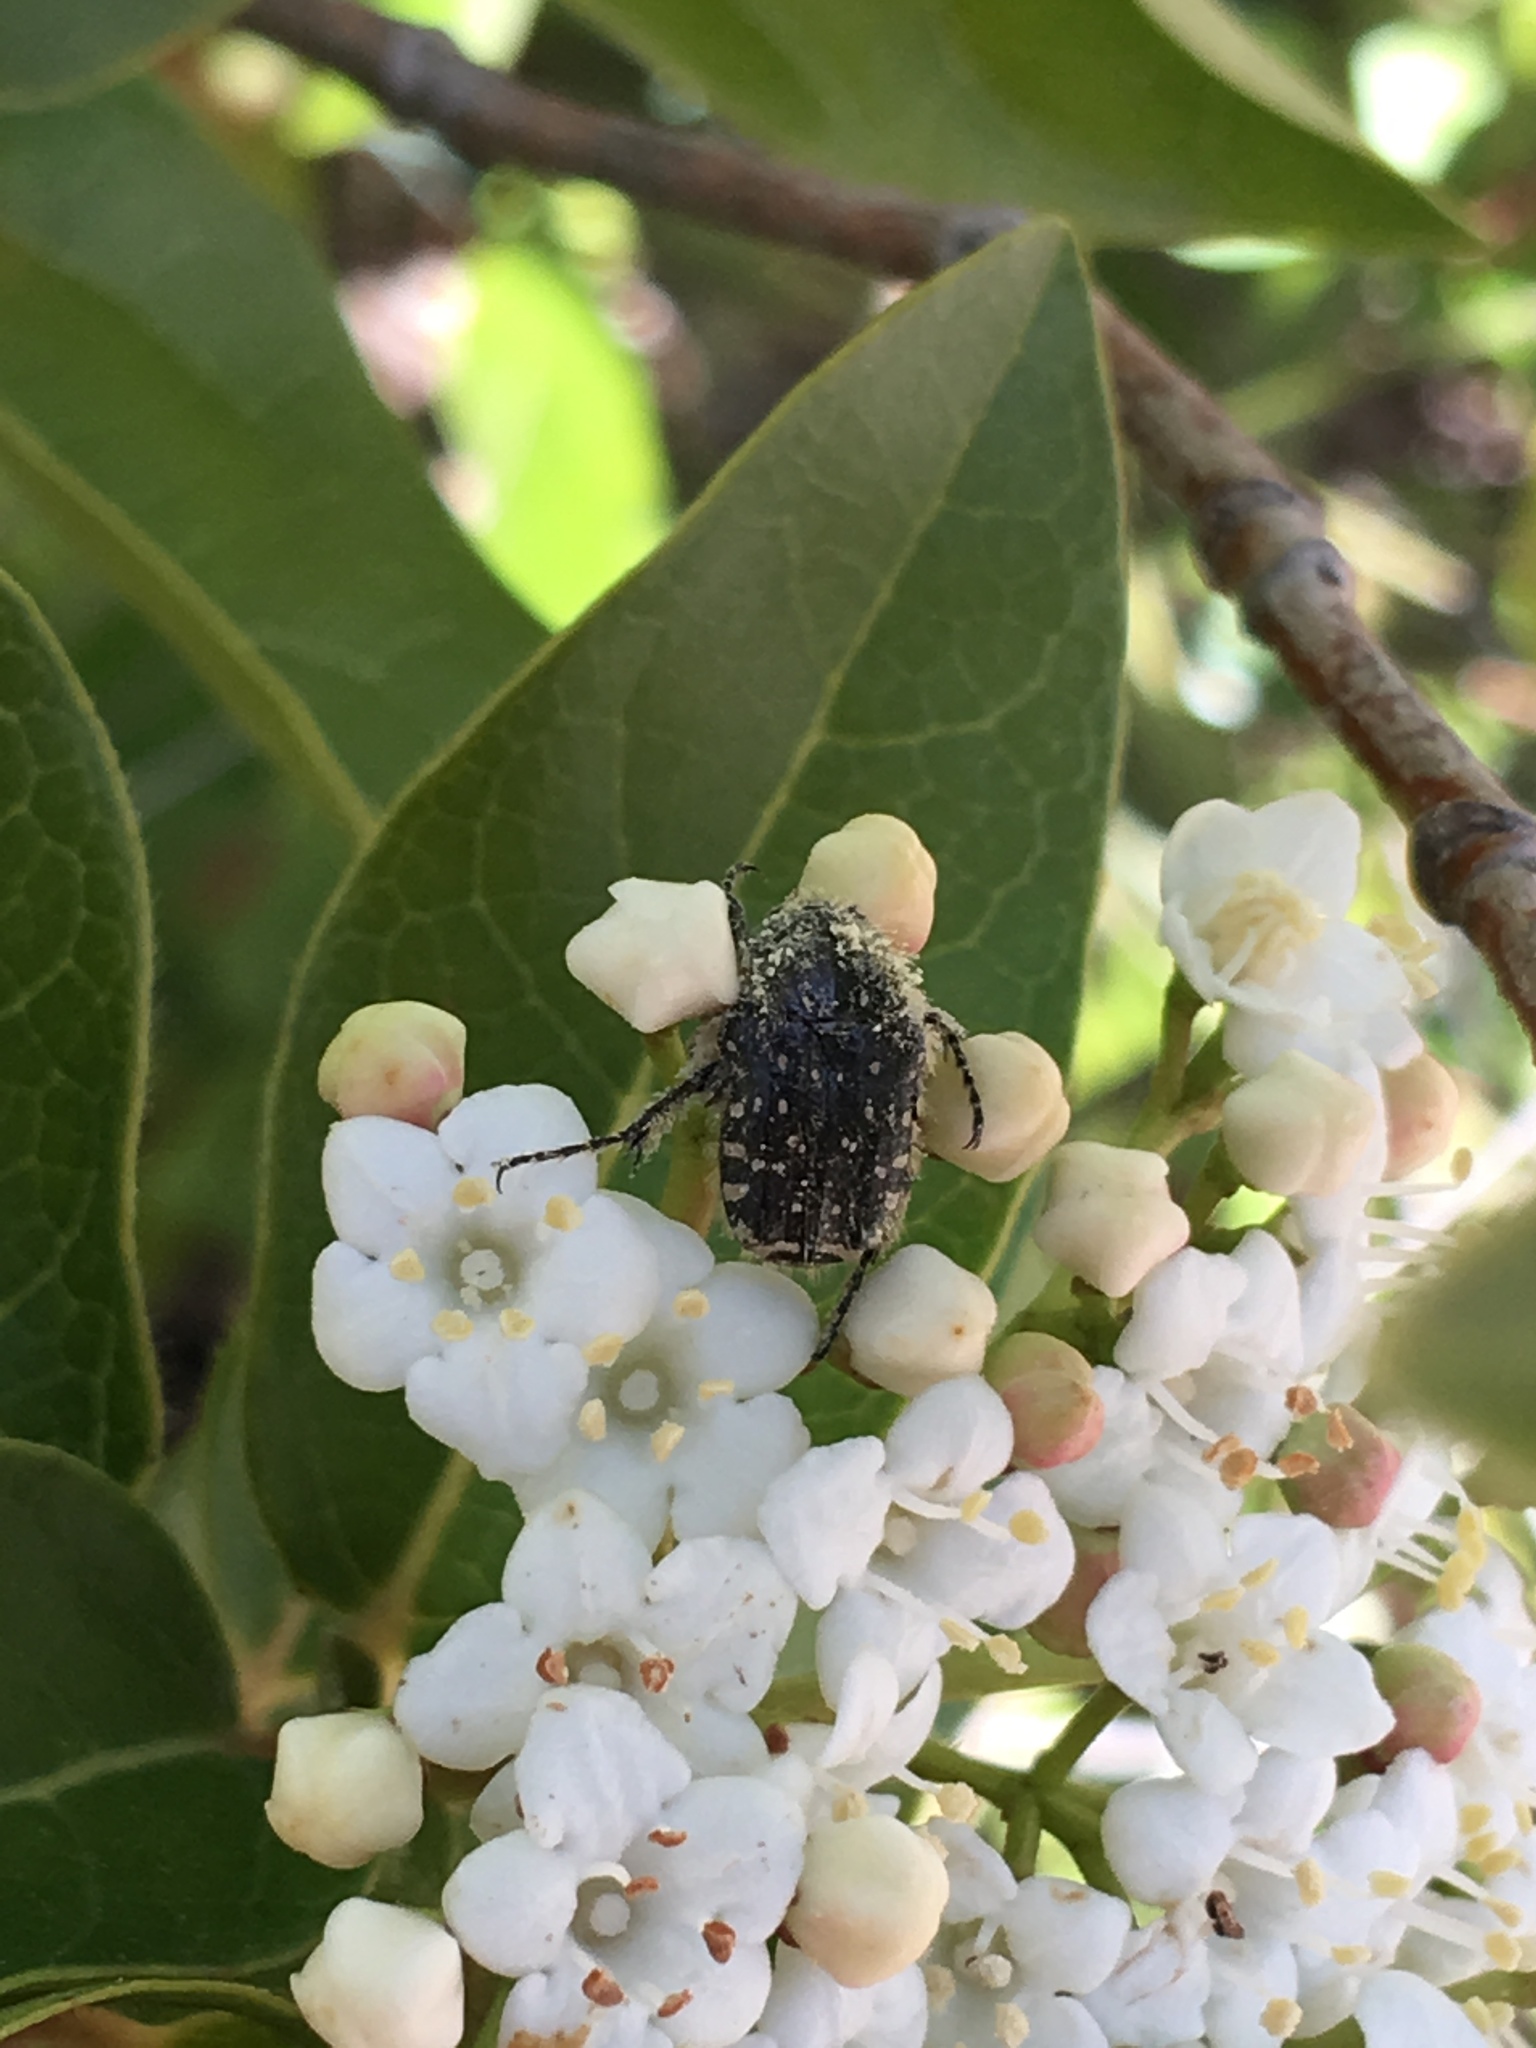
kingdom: Animalia
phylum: Arthropoda
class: Insecta
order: Coleoptera
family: Scarabaeidae
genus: Oxythyrea
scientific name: Oxythyrea funesta
